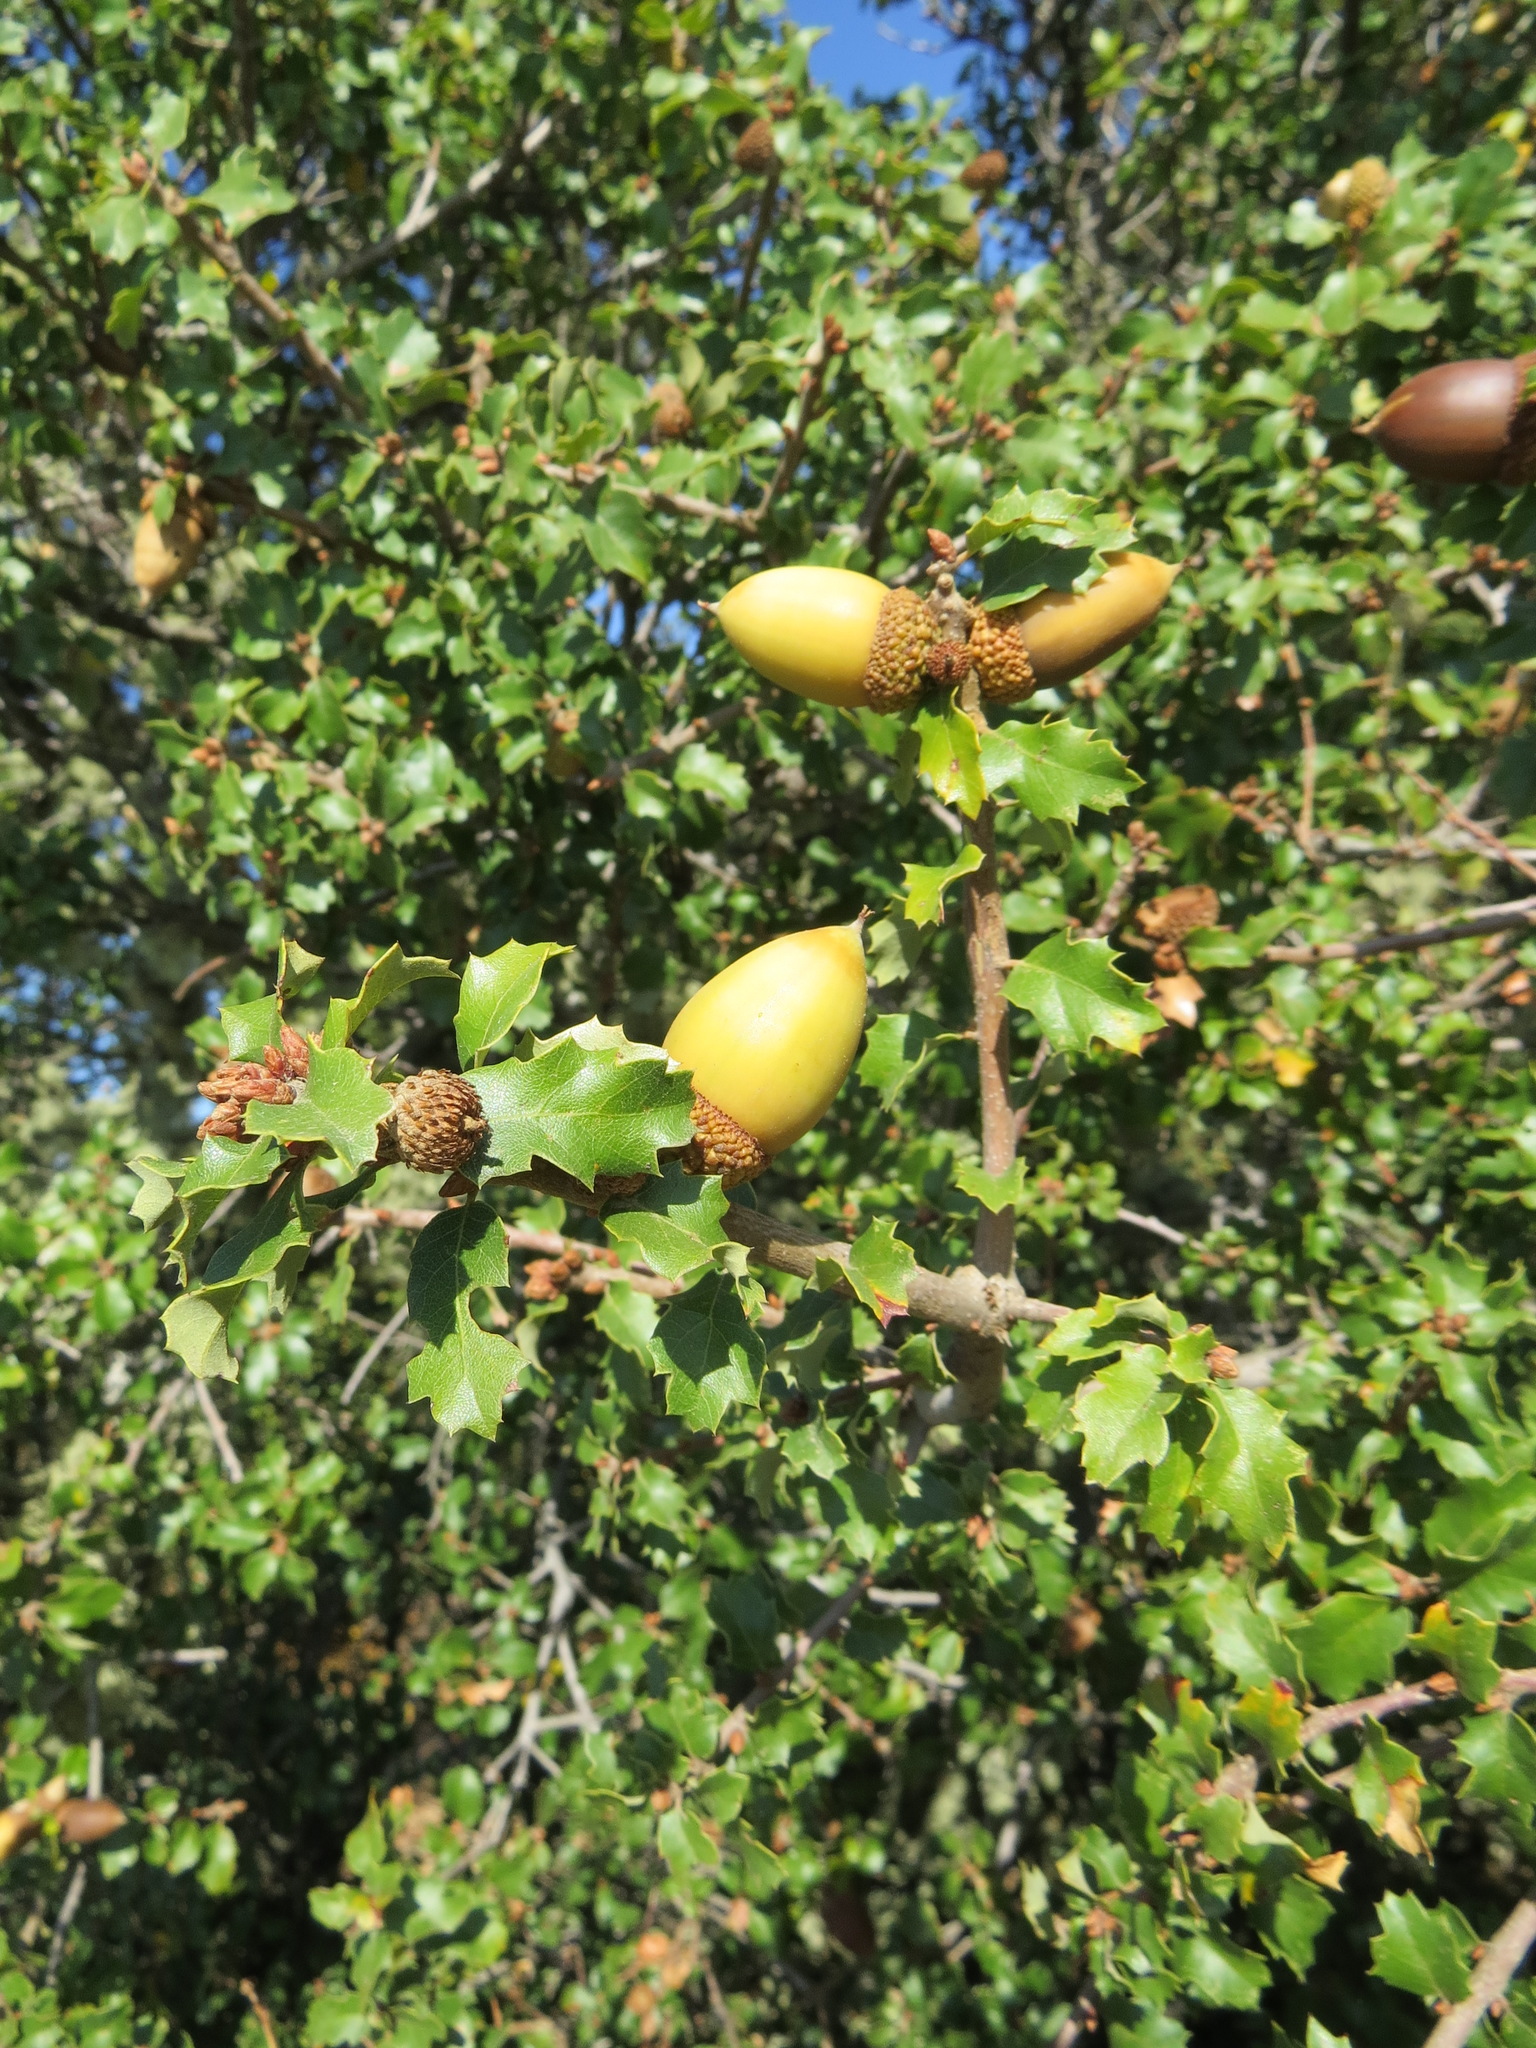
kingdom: Plantae
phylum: Tracheophyta
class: Magnoliopsida
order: Fagales
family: Fagaceae
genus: Quercus
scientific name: Quercus berberidifolia
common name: California scrub oak
